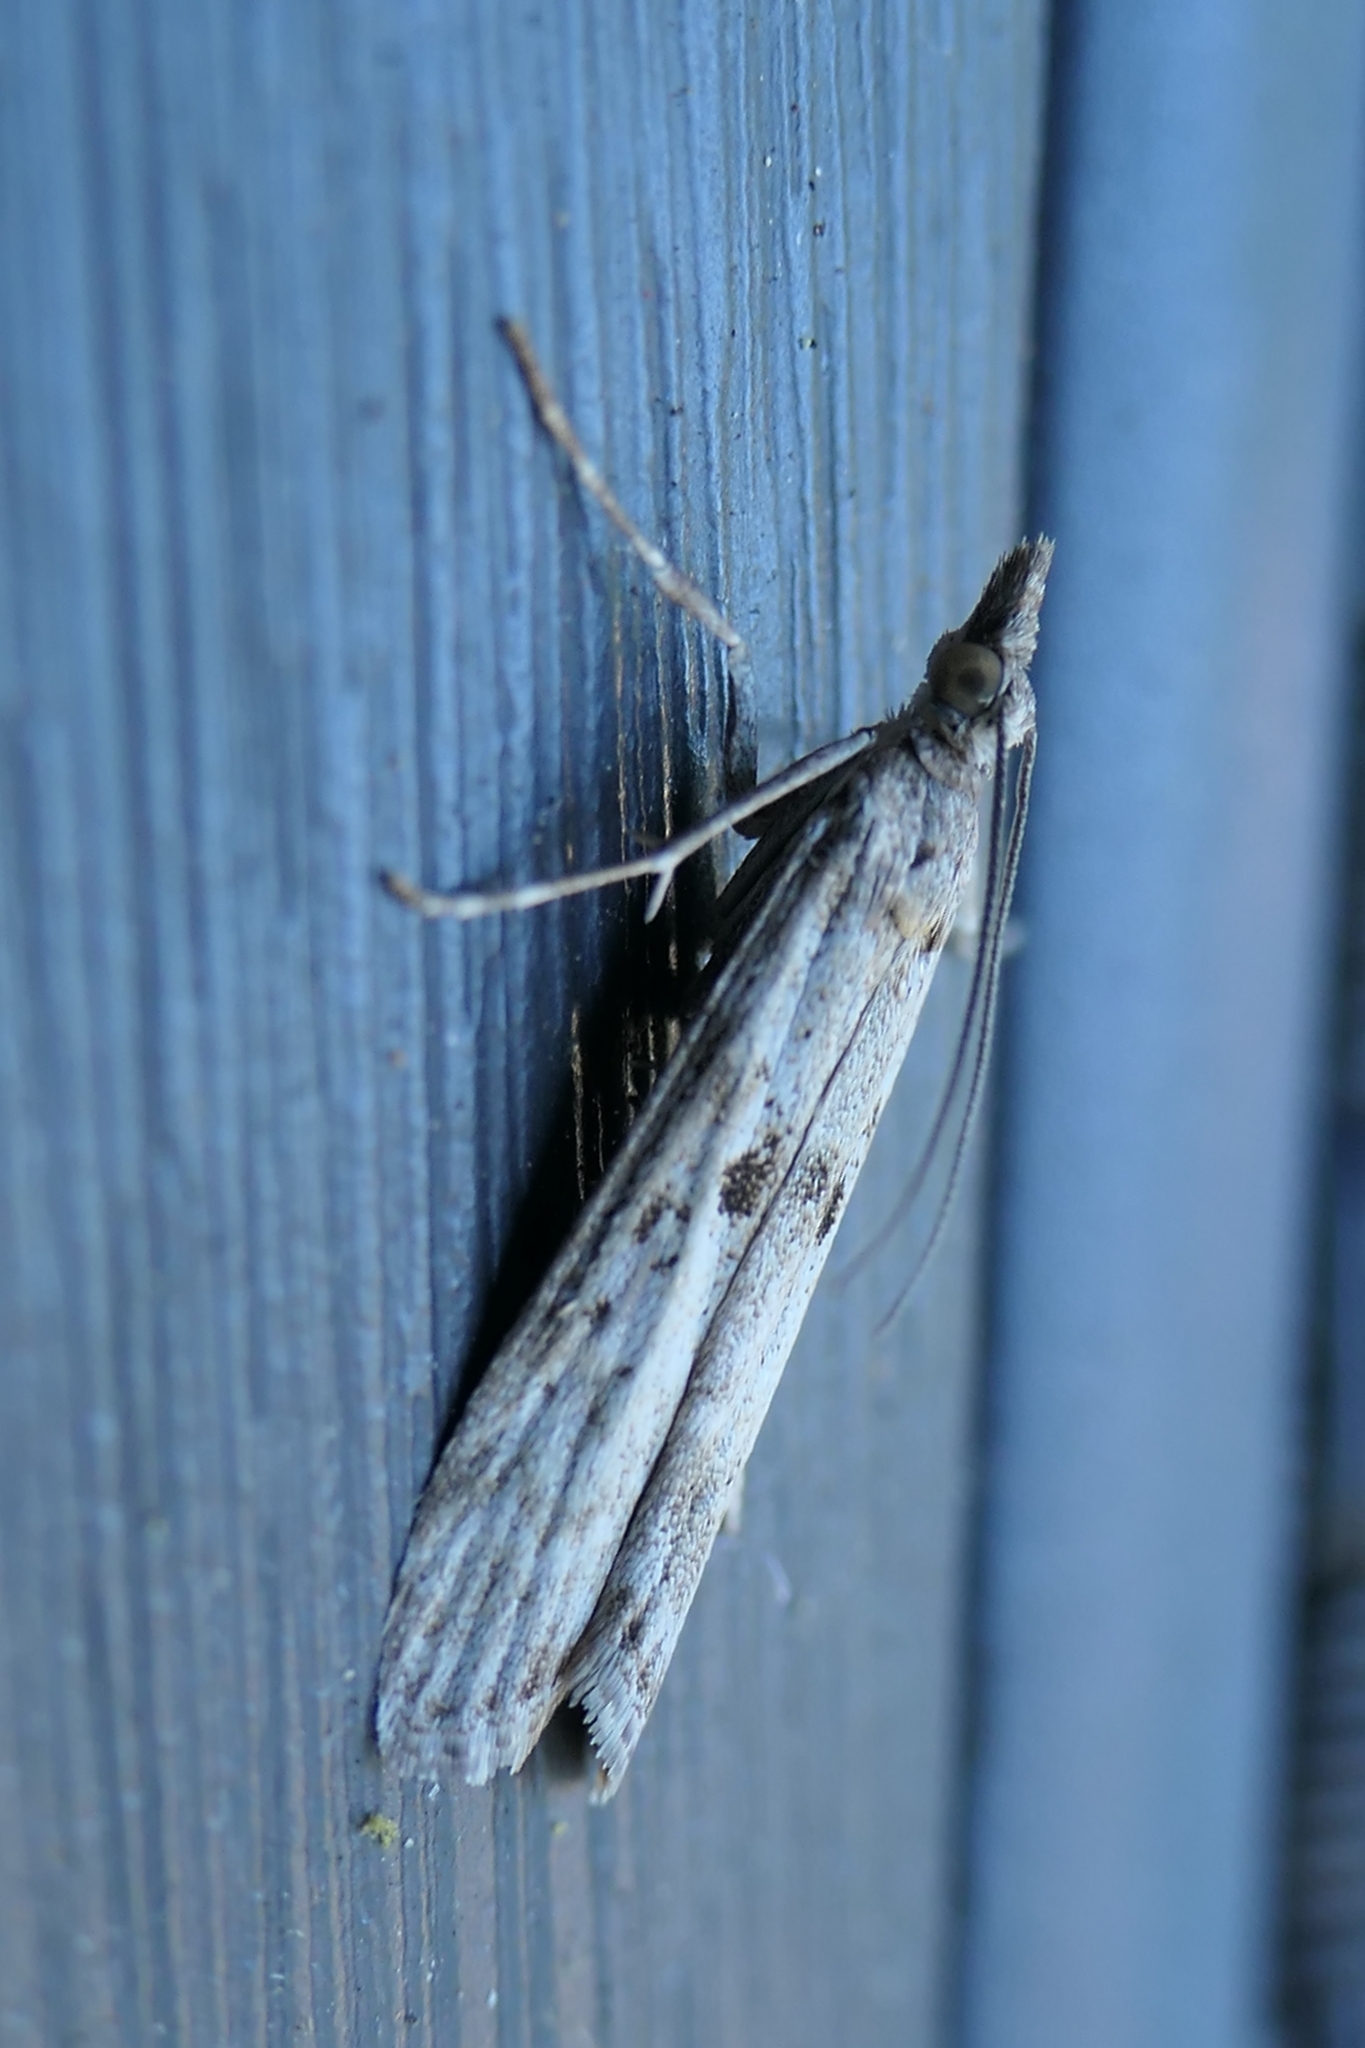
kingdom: Animalia
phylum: Arthropoda
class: Insecta
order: Lepidoptera
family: Crambidae
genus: Eudonia
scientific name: Eudonia leptalea
